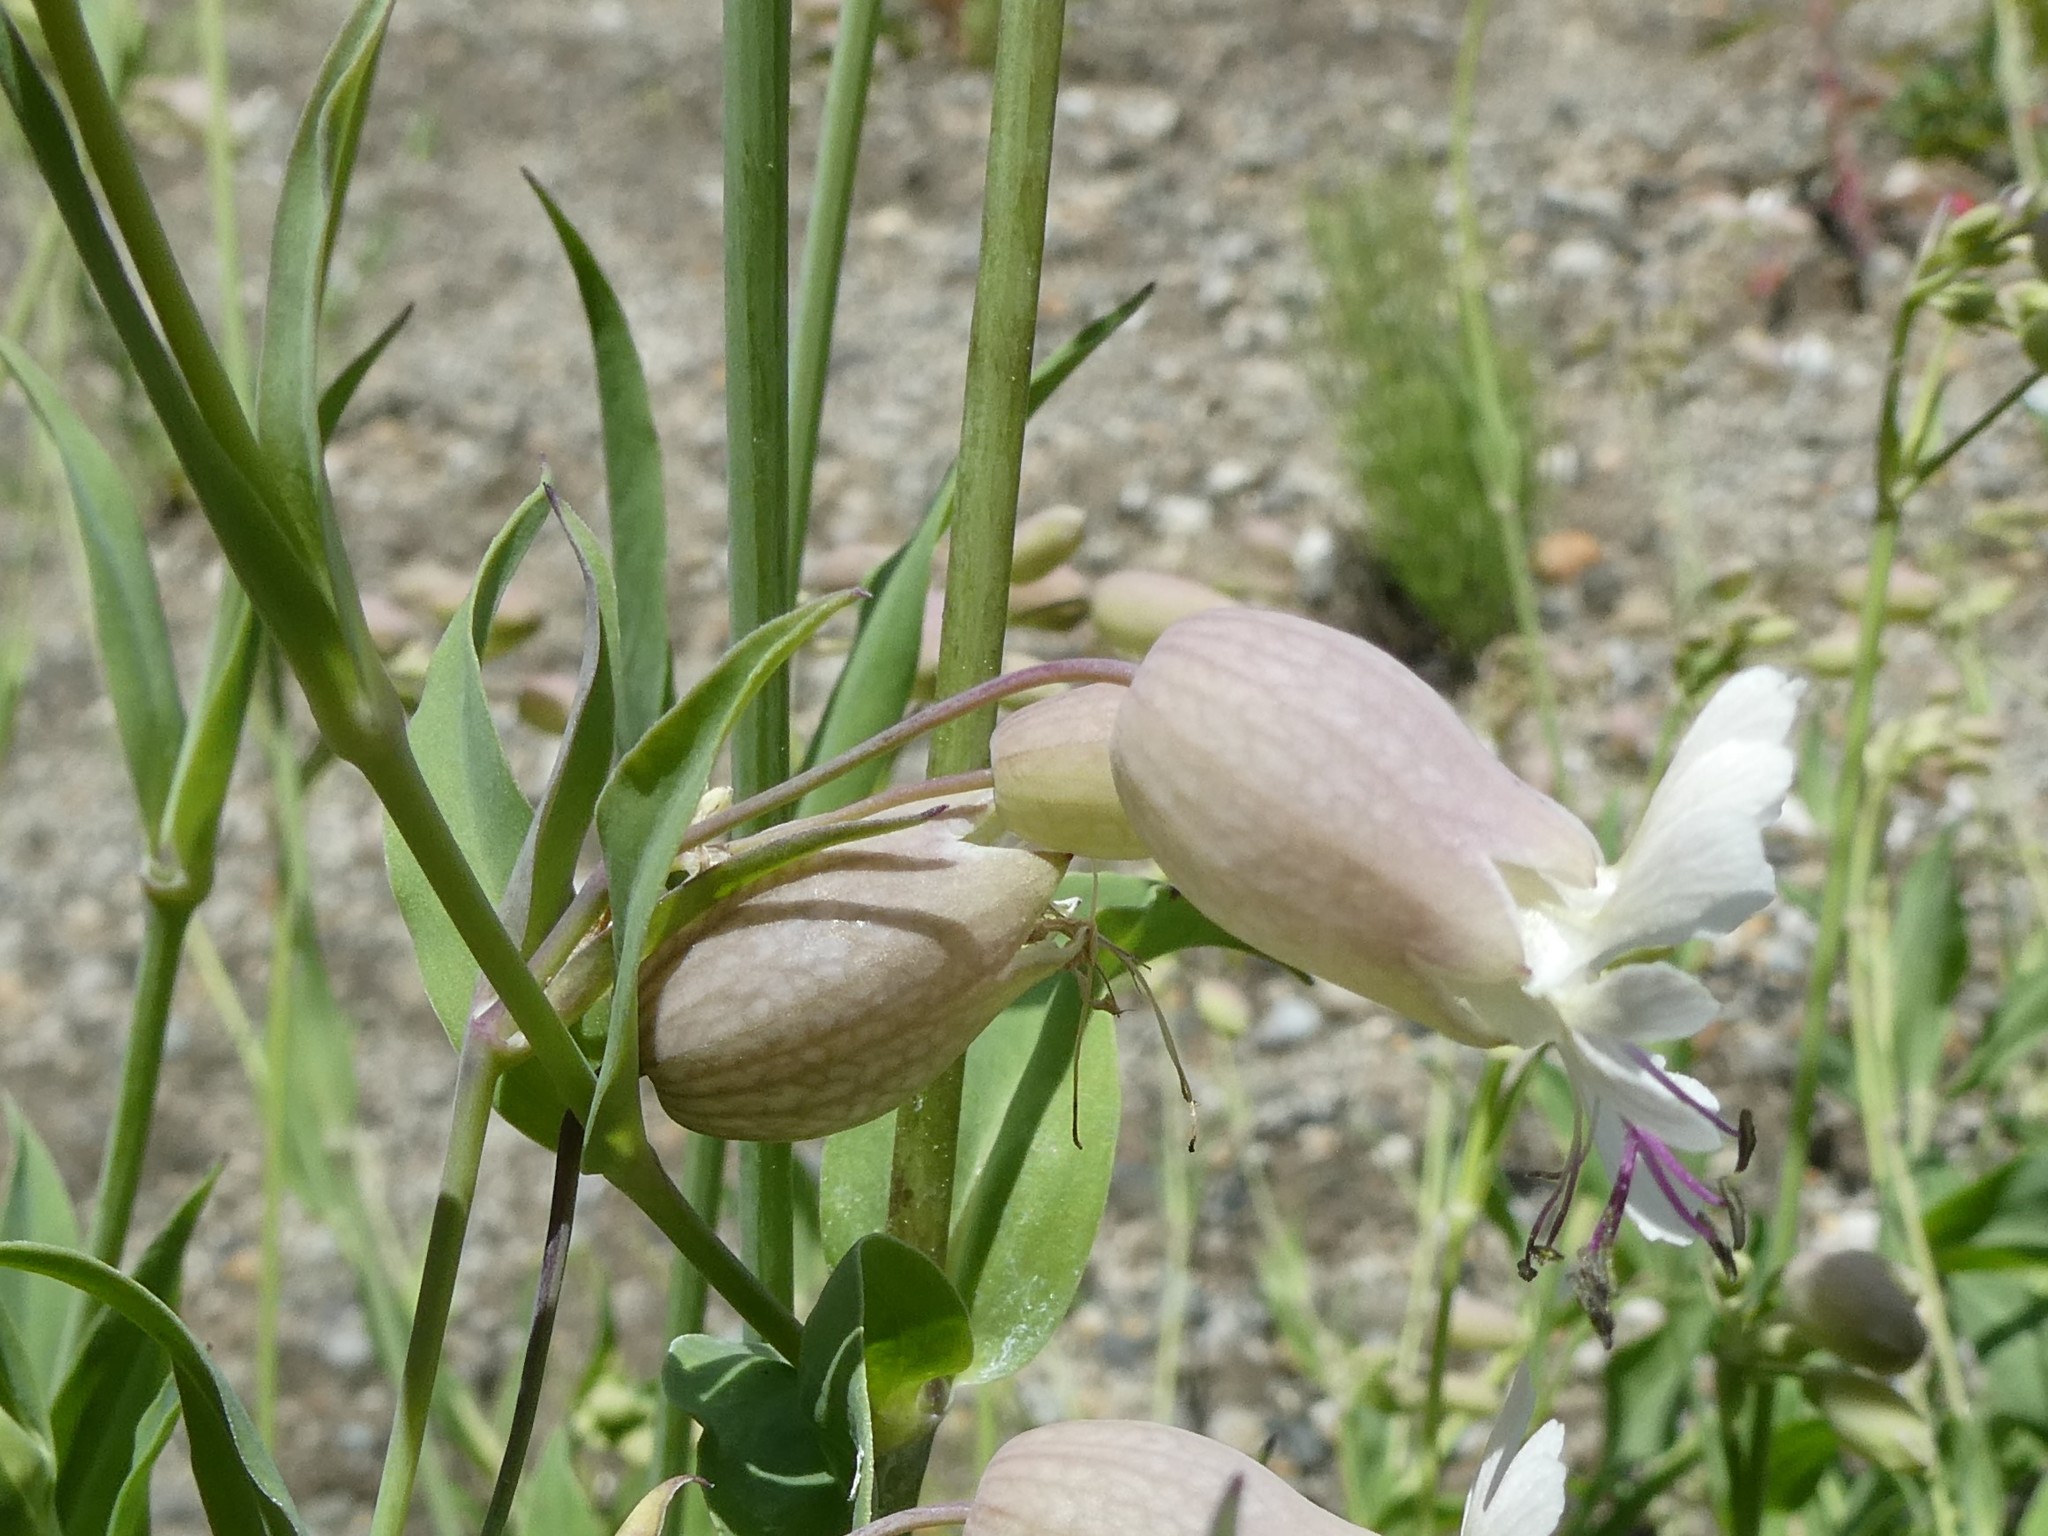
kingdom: Plantae
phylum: Tracheophyta
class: Magnoliopsida
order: Caryophyllales
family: Caryophyllaceae
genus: Silene
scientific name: Silene vulgaris
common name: Bladder campion
